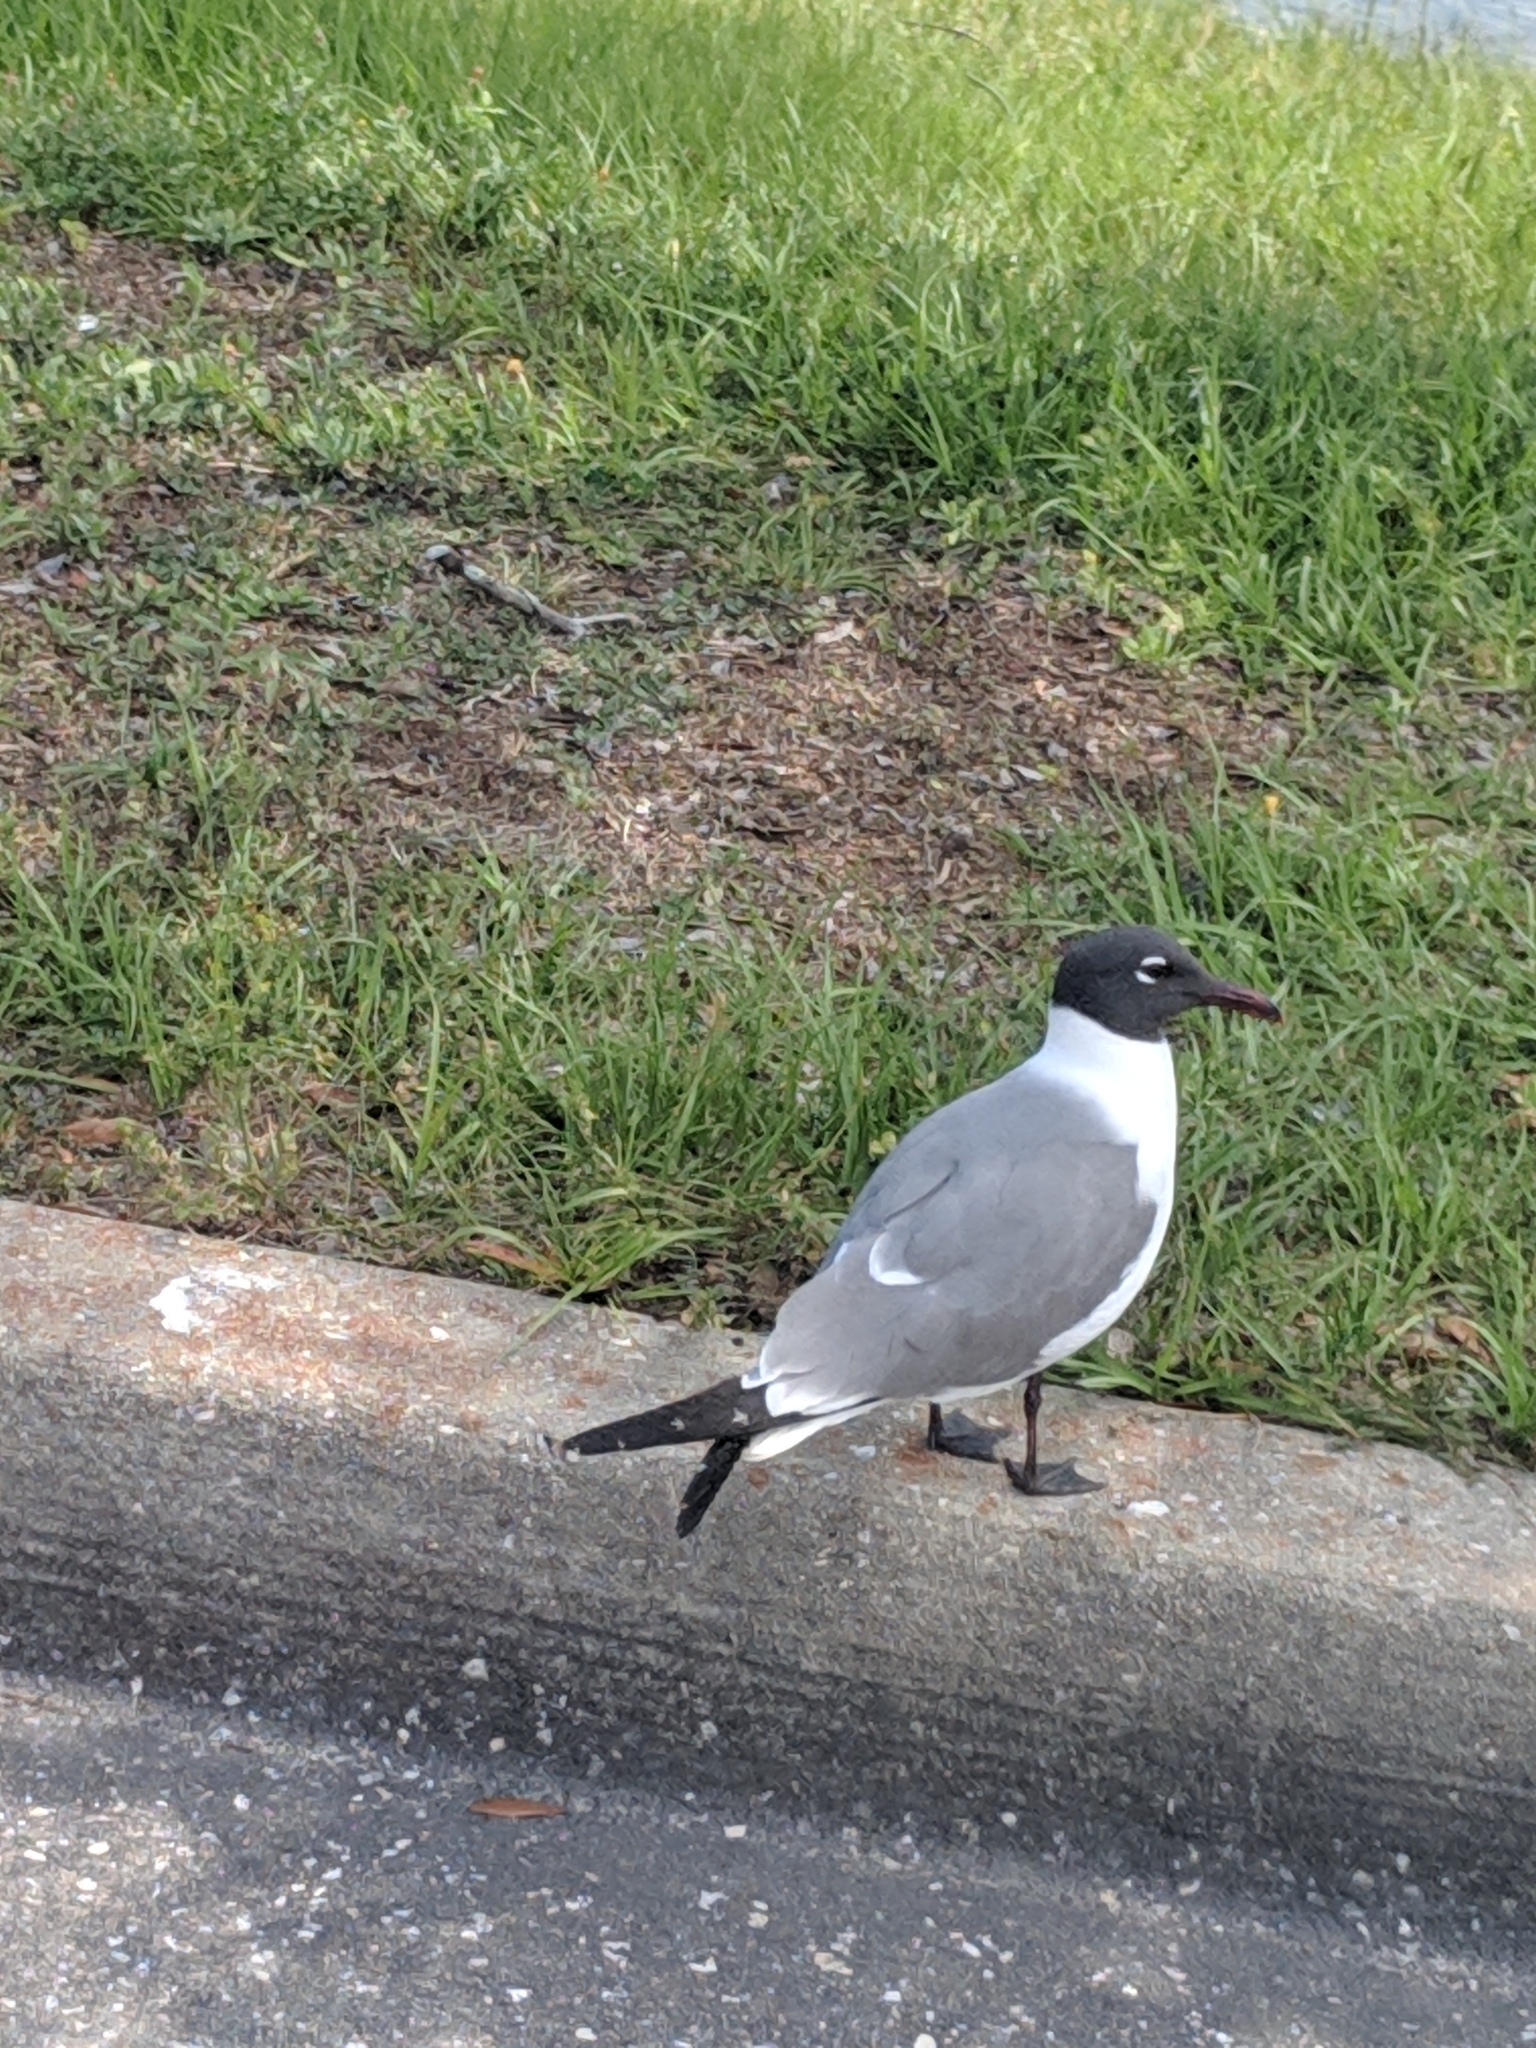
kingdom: Animalia
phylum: Chordata
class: Aves
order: Charadriiformes
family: Laridae
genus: Leucophaeus
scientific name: Leucophaeus atricilla
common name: Laughing gull
